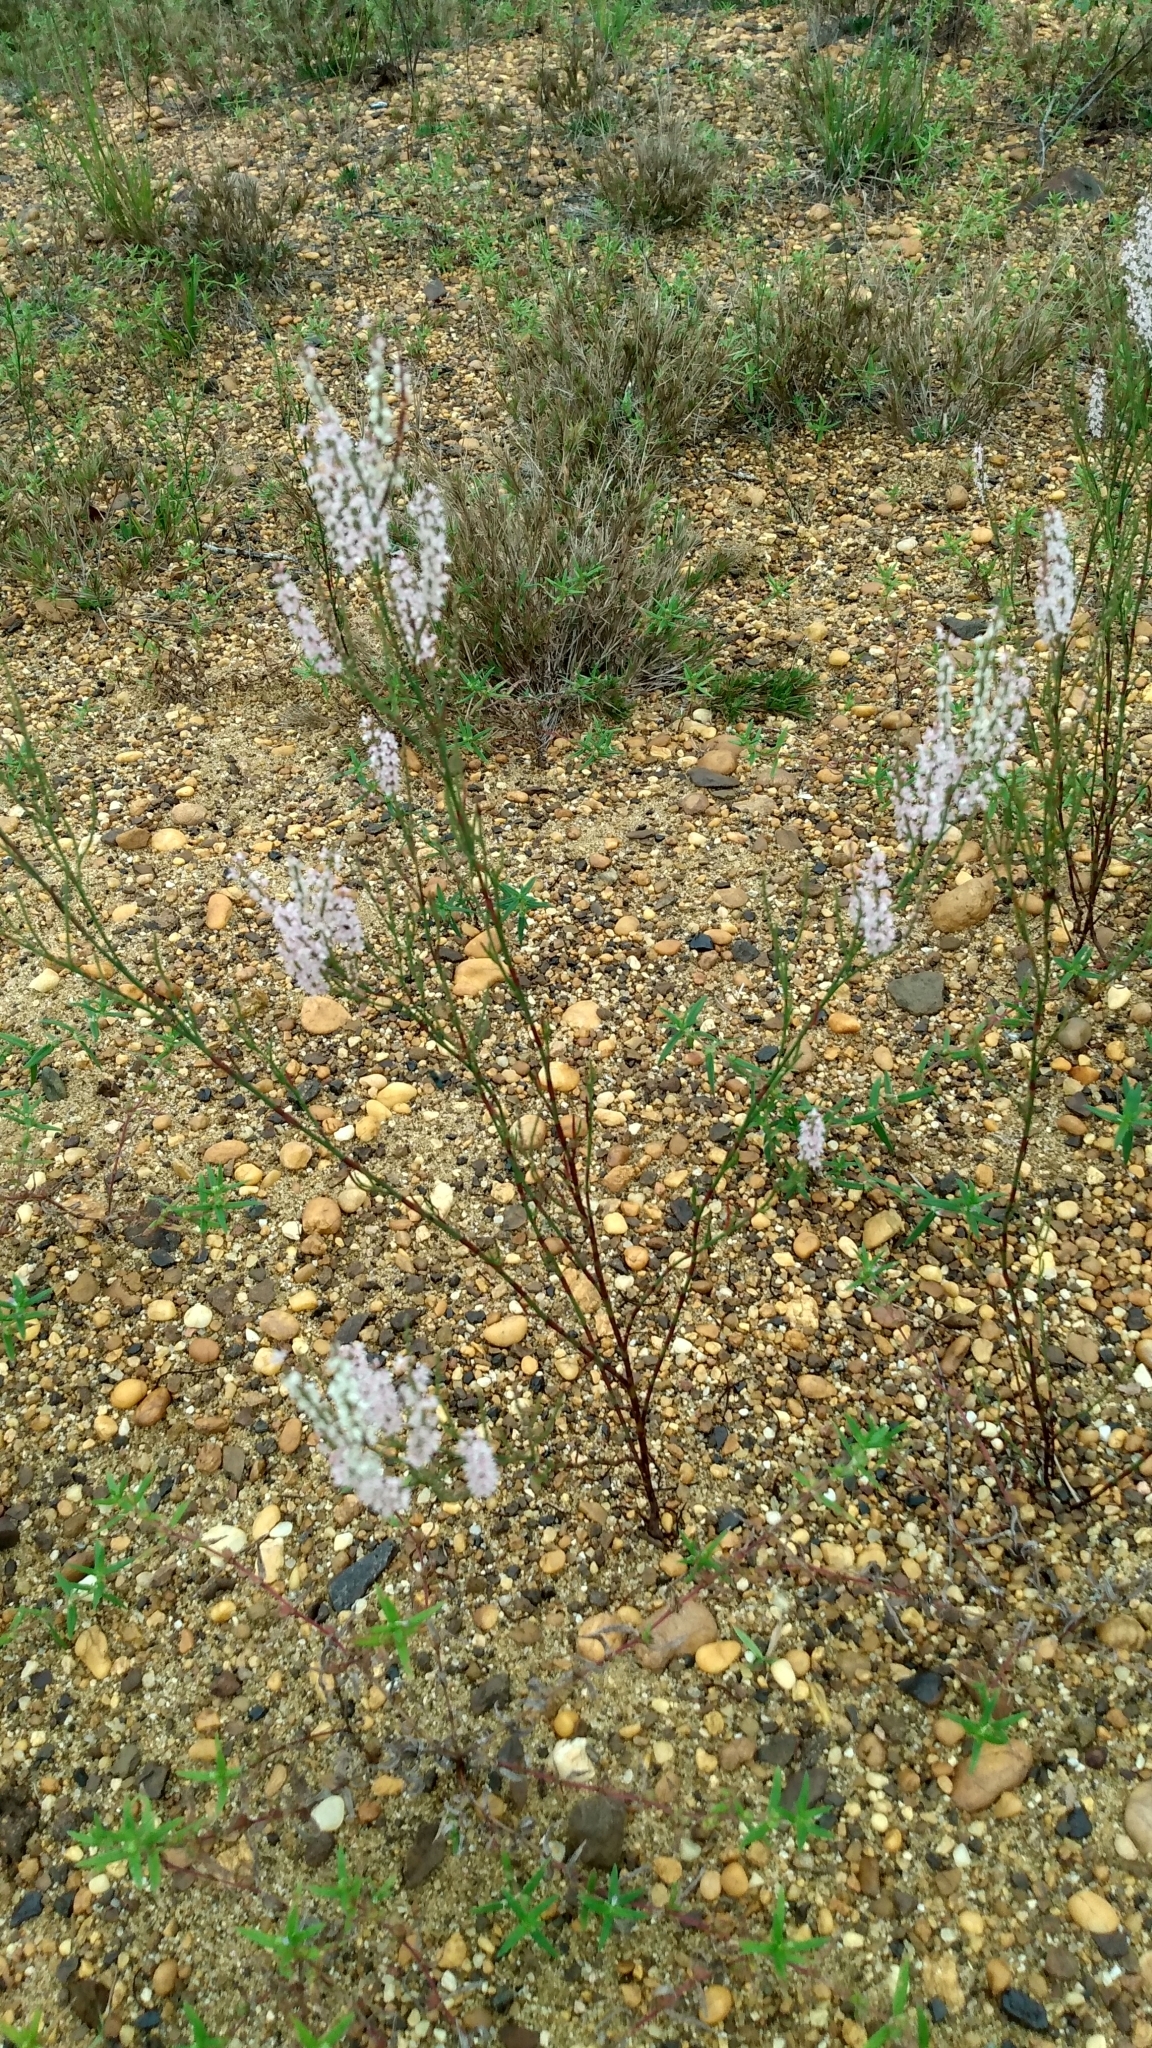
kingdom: Plantae
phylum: Tracheophyta
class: Magnoliopsida
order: Caryophyllales
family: Polygonaceae
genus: Polygonella
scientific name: Polygonella articulata
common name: Coastal jointweed
